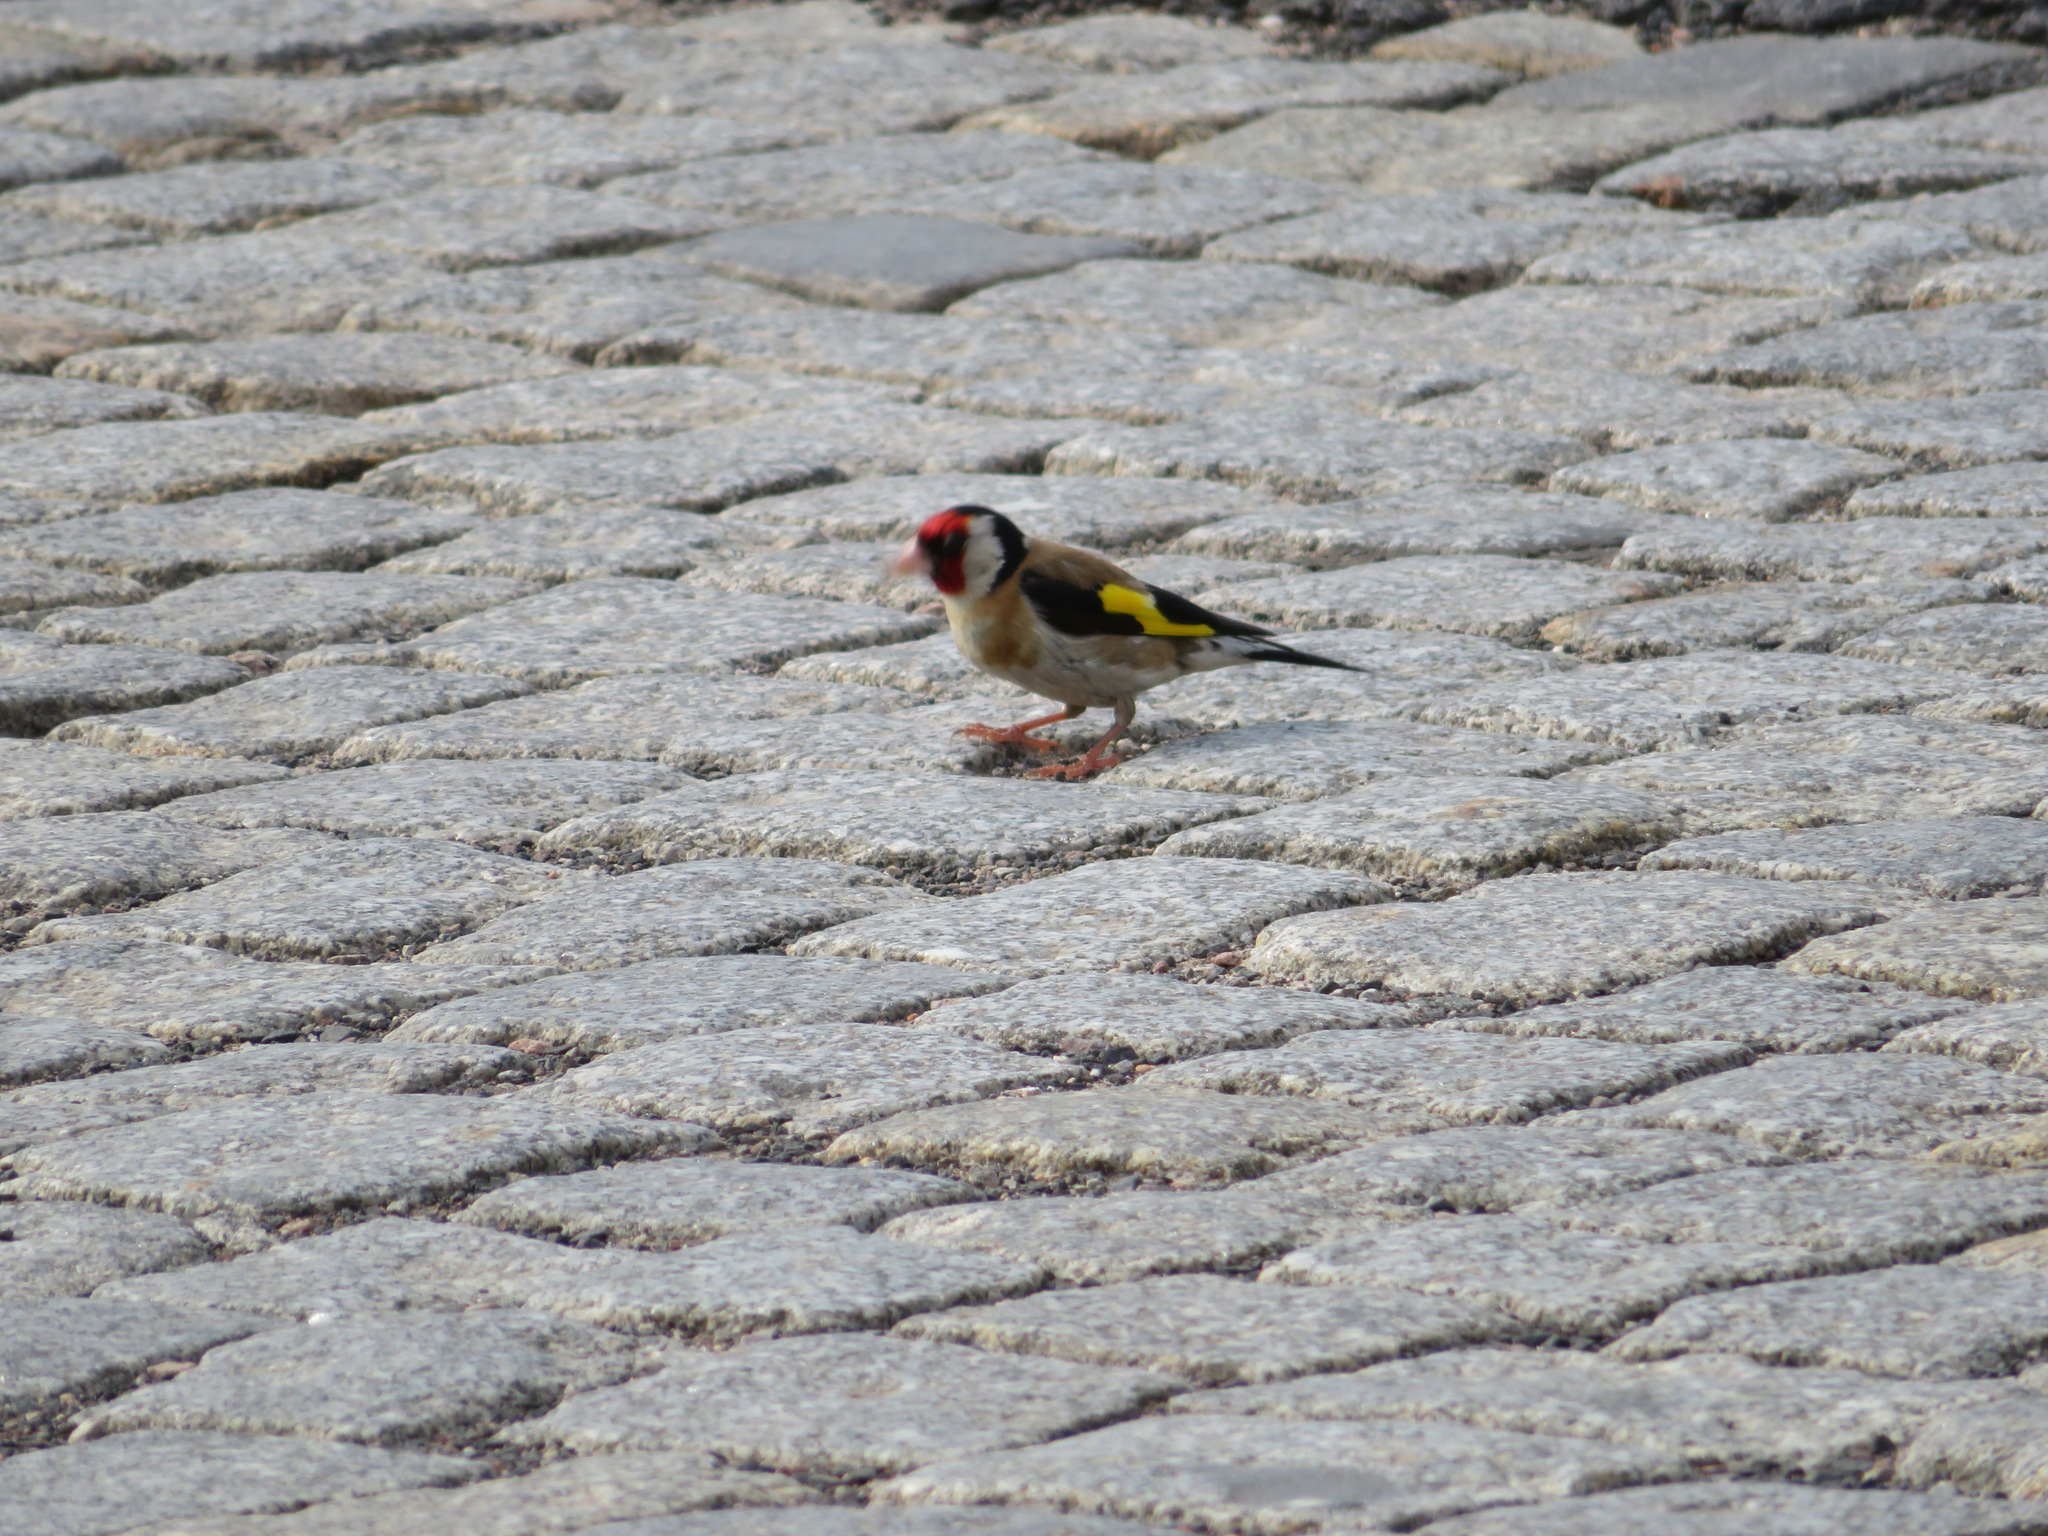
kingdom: Animalia
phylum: Chordata
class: Aves
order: Passeriformes
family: Fringillidae
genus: Carduelis
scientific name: Carduelis carduelis
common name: European goldfinch
